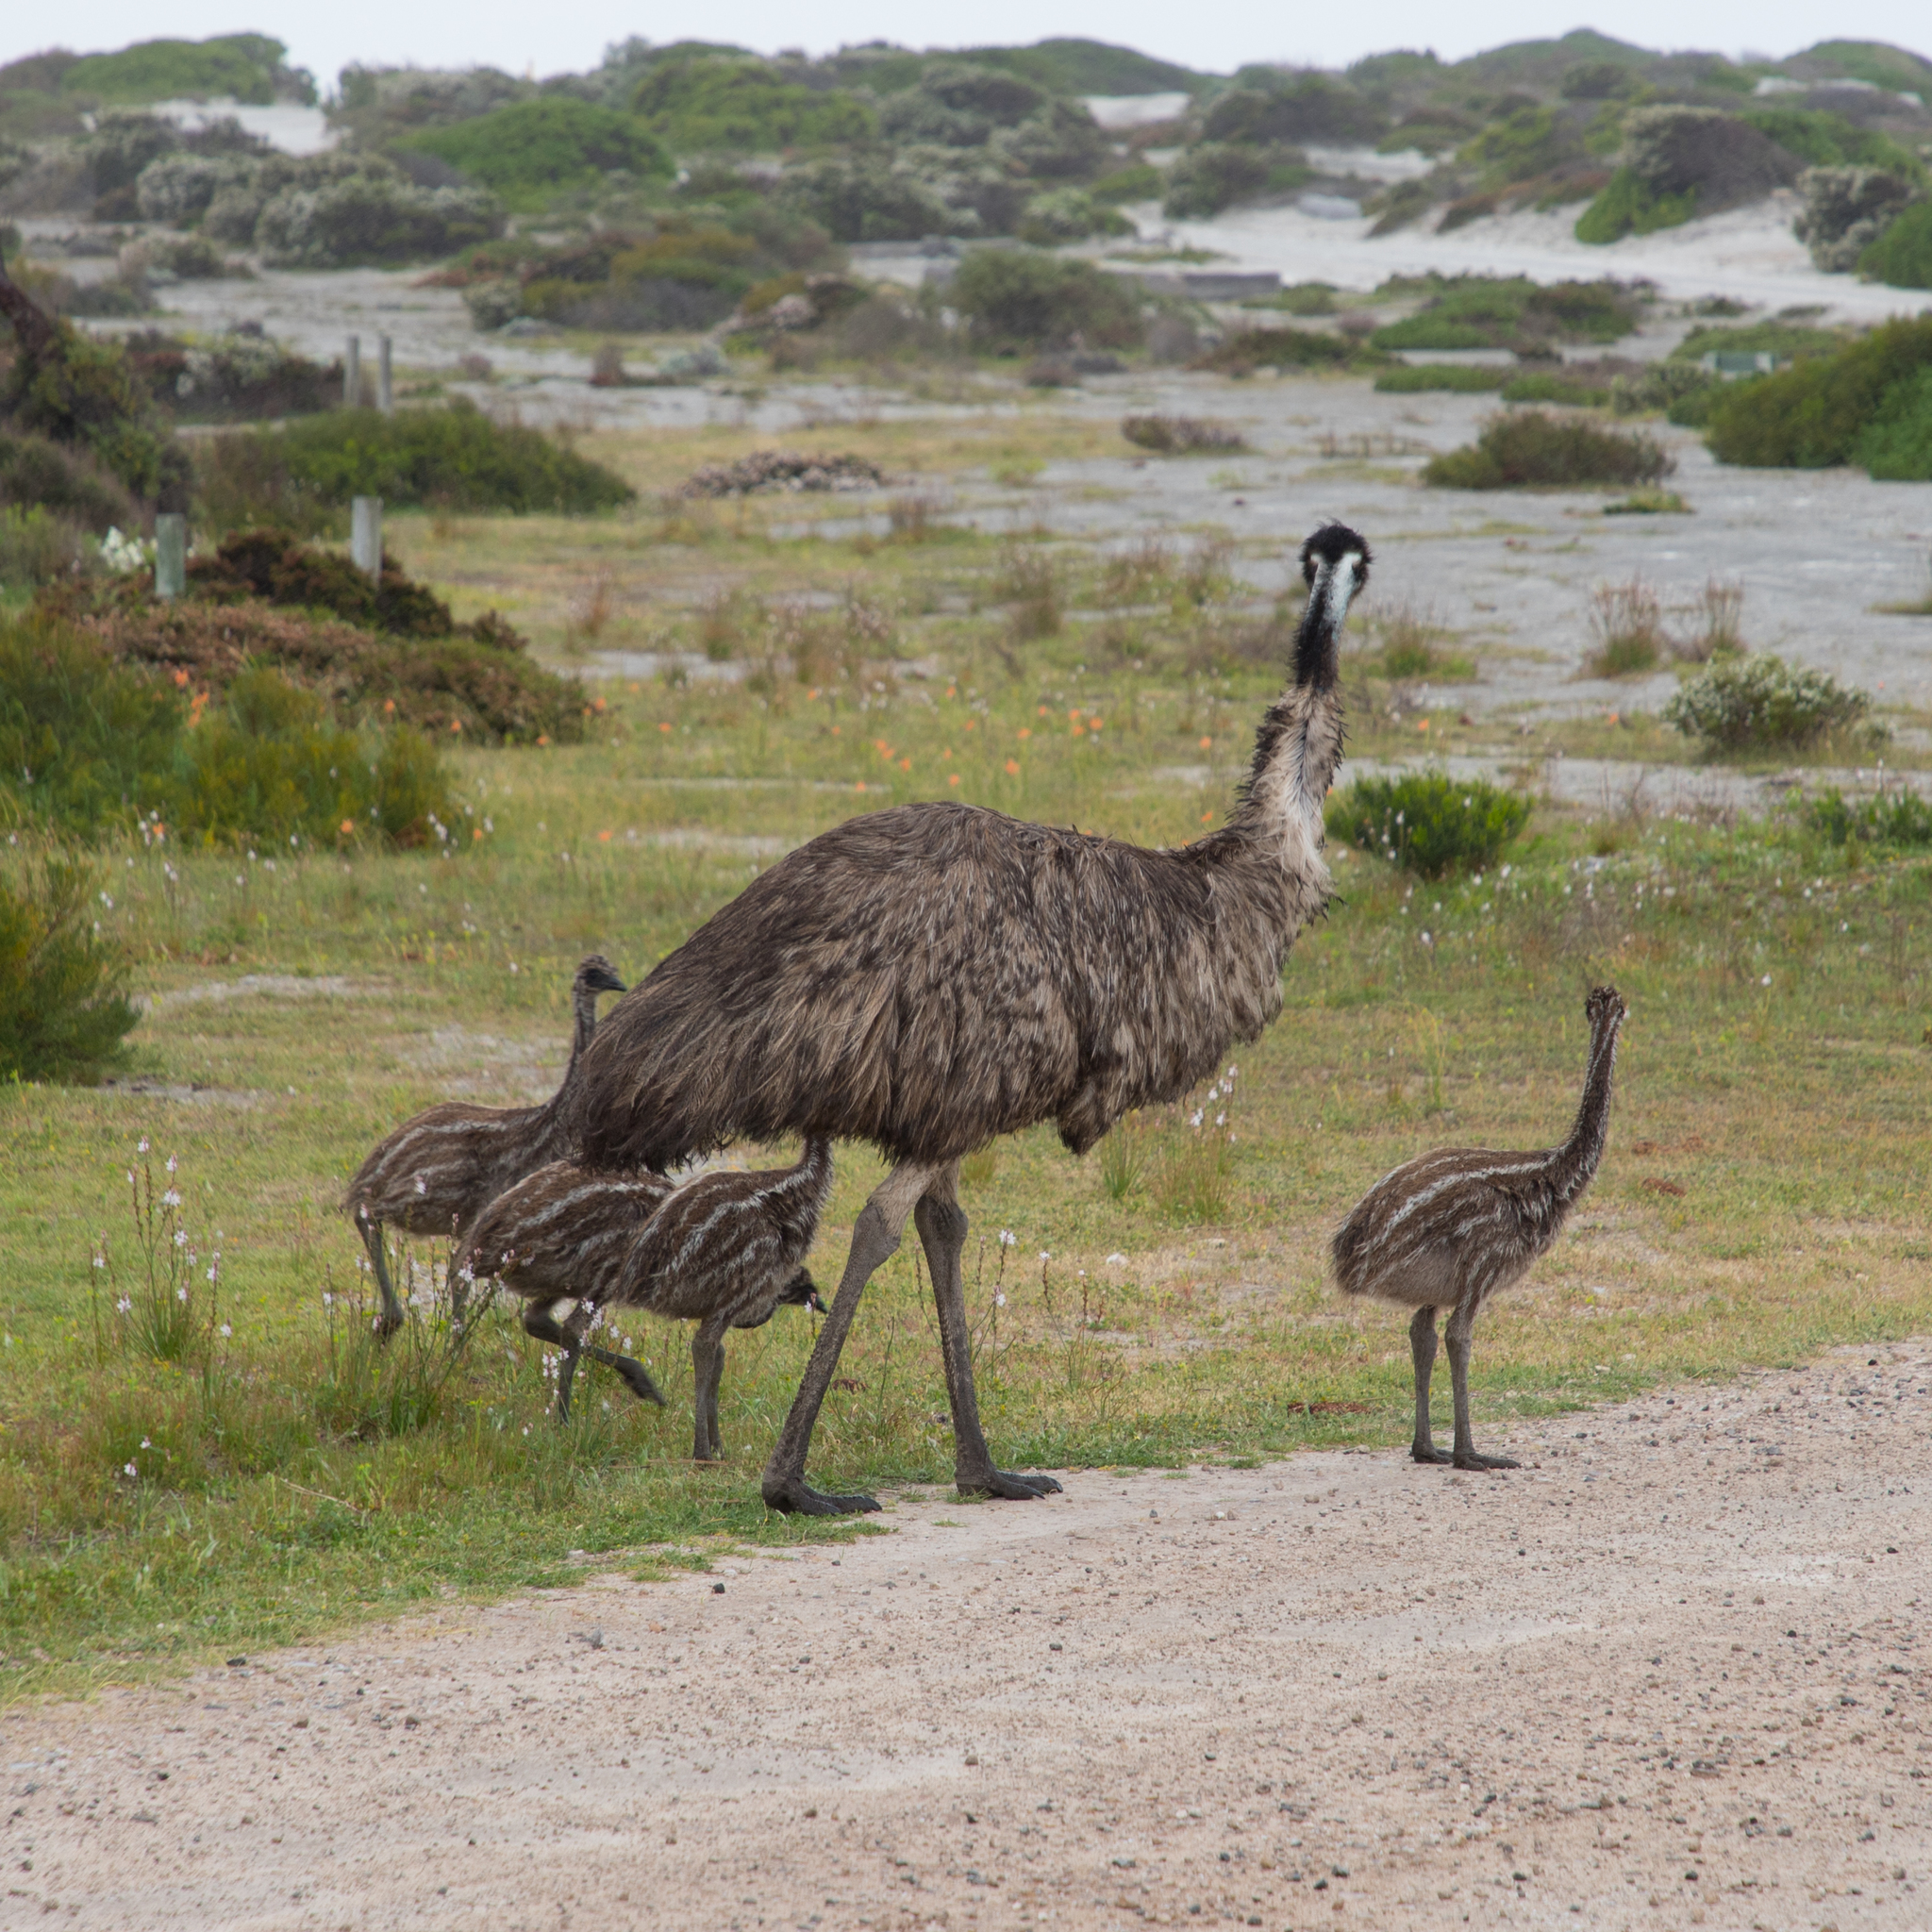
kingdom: Animalia
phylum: Chordata
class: Aves
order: Casuariiformes
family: Dromaiidae
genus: Dromaius
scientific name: Dromaius novaehollandiae
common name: Emu
